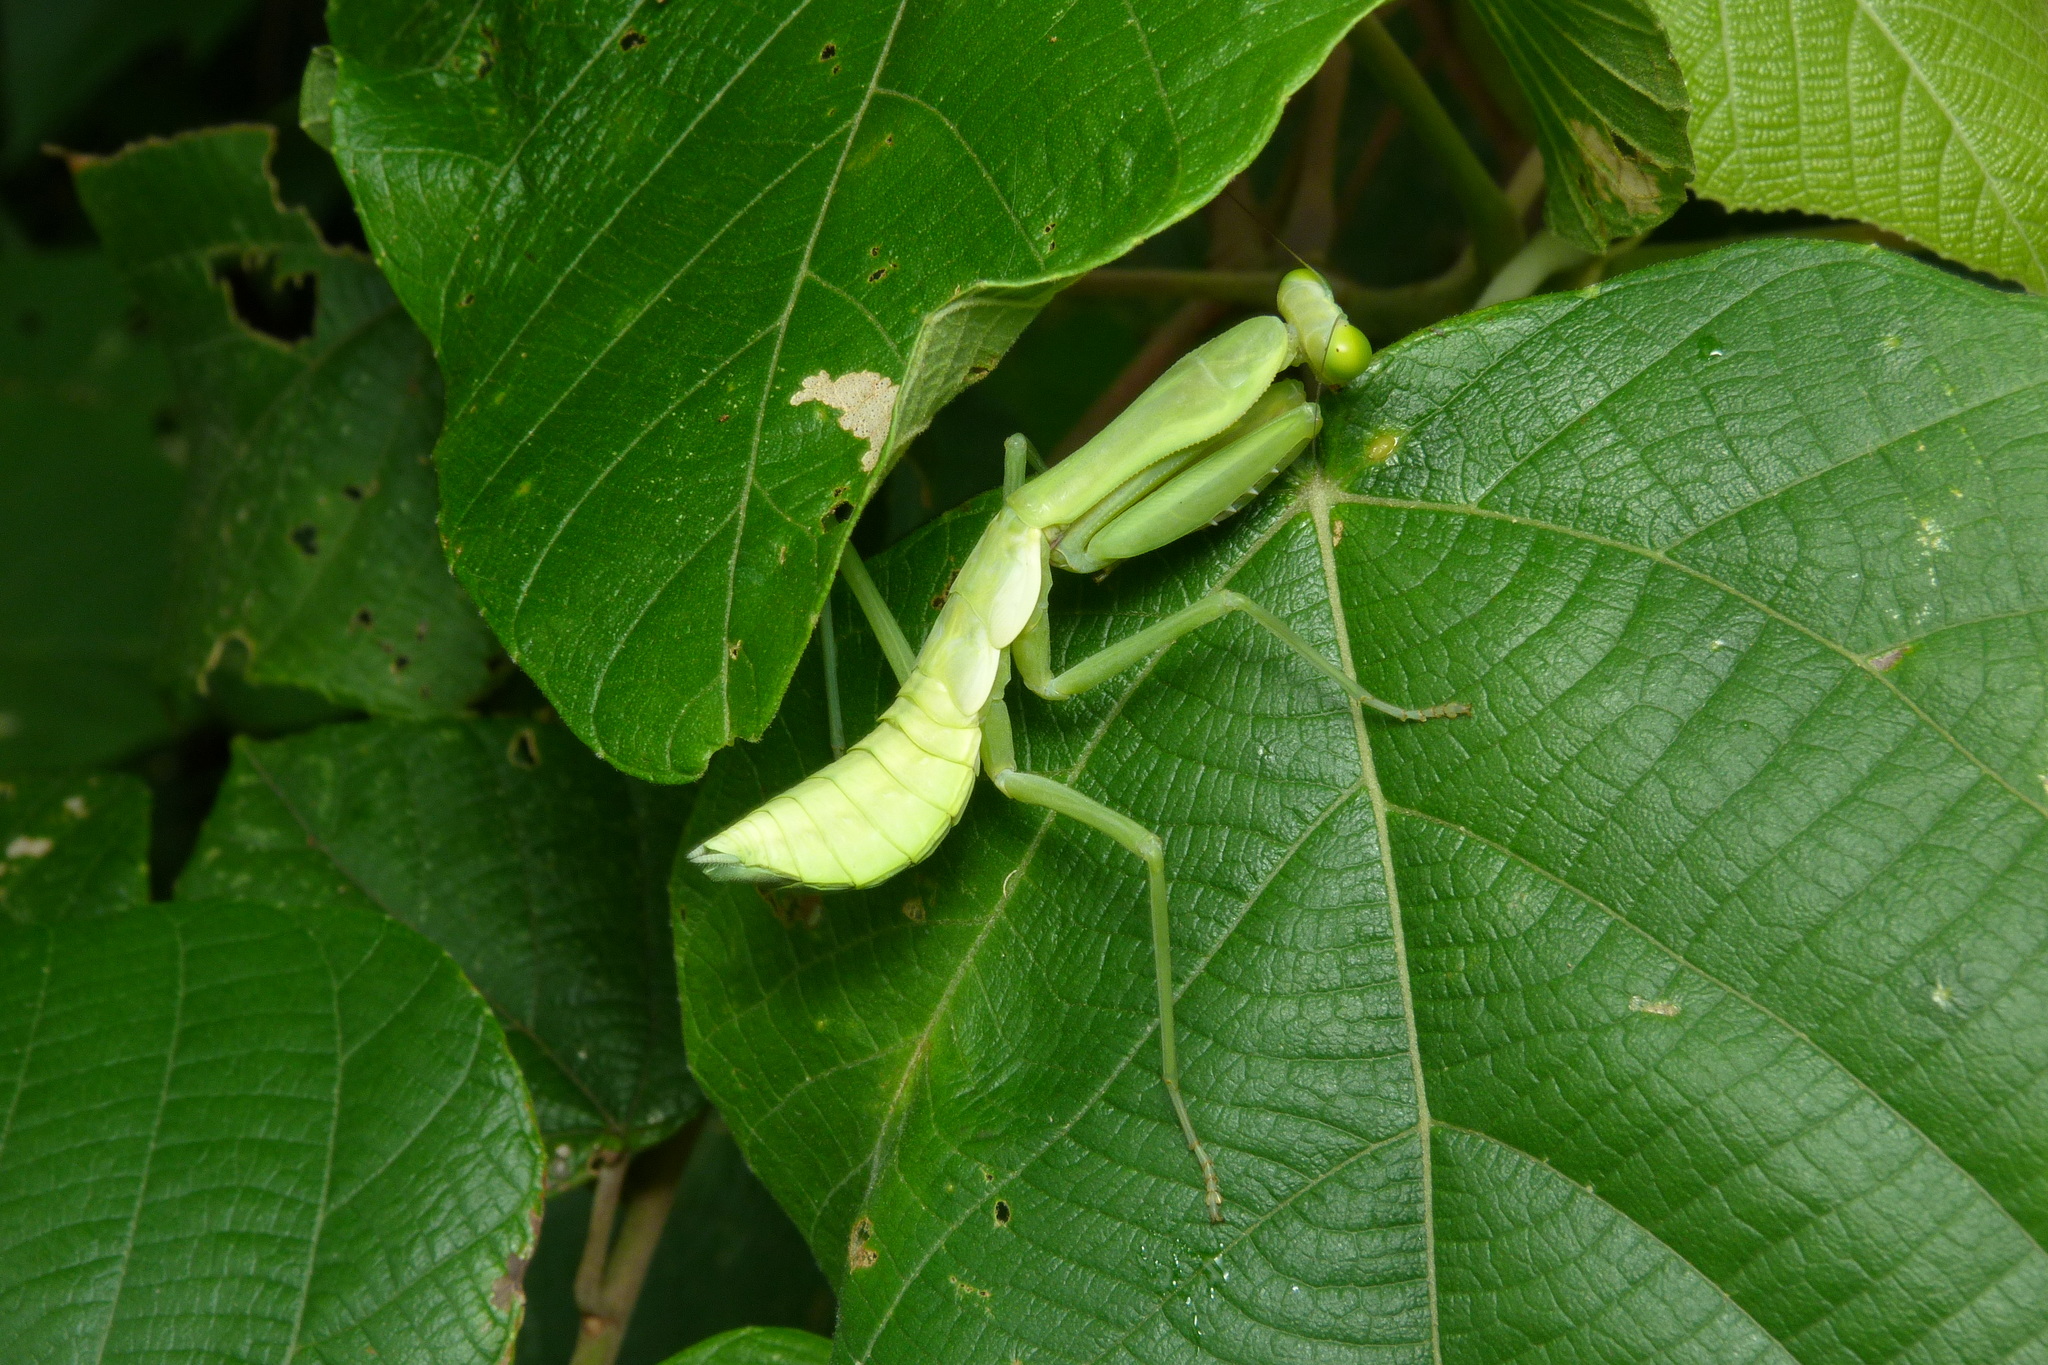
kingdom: Animalia
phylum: Arthropoda
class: Insecta
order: Mantodea
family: Mantidae
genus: Hierodula
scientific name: Hierodula majuscula
